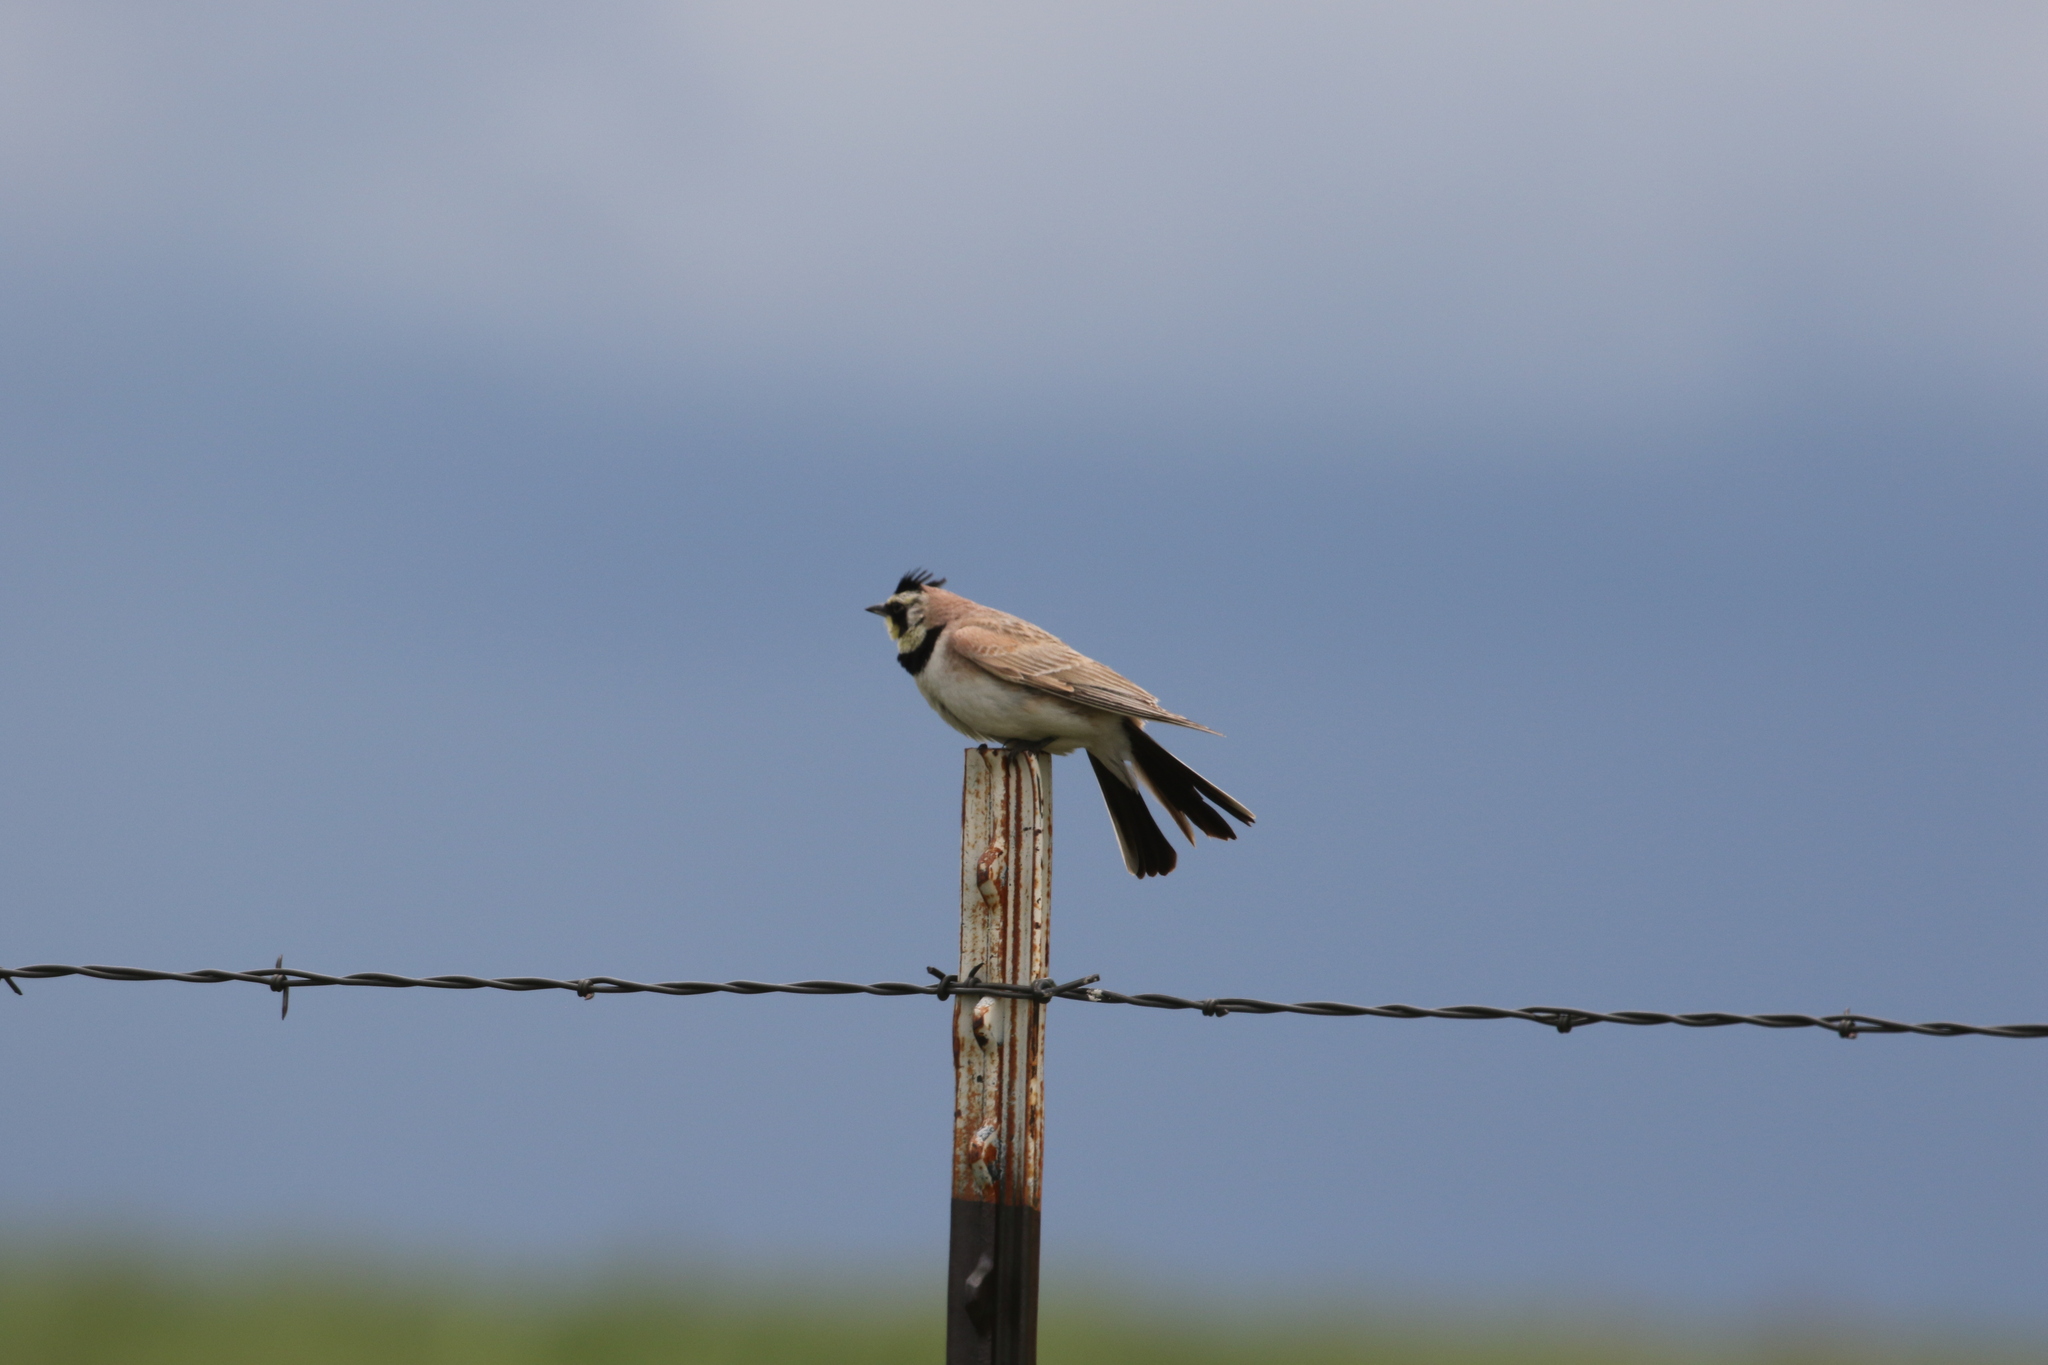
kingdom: Animalia
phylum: Chordata
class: Aves
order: Passeriformes
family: Alaudidae
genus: Eremophila
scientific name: Eremophila alpestris
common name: Horned lark
